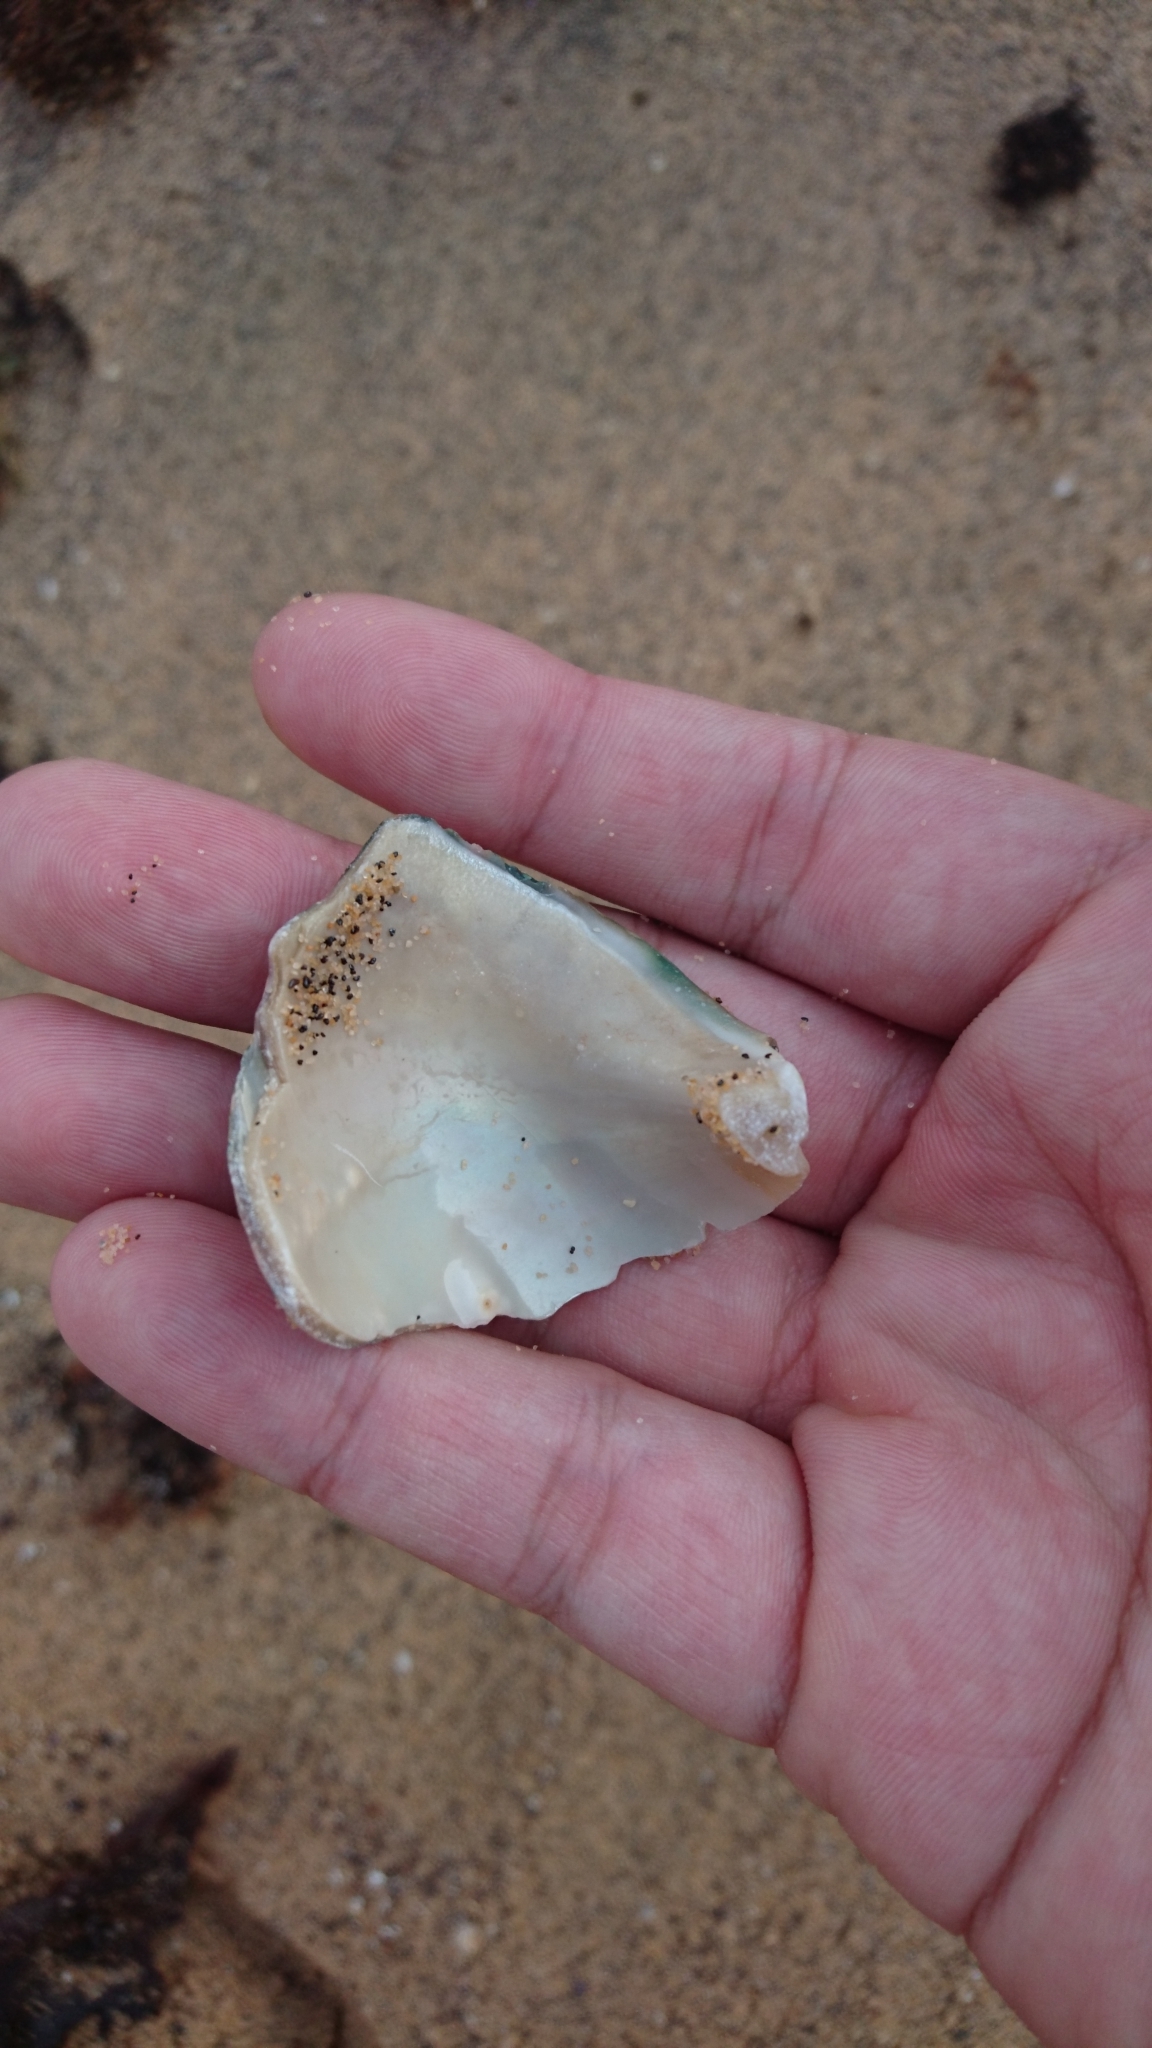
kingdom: Animalia
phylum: Mollusca
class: Gastropoda
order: Trochida
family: Turbinidae
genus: Turbo
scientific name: Turbo militaris
